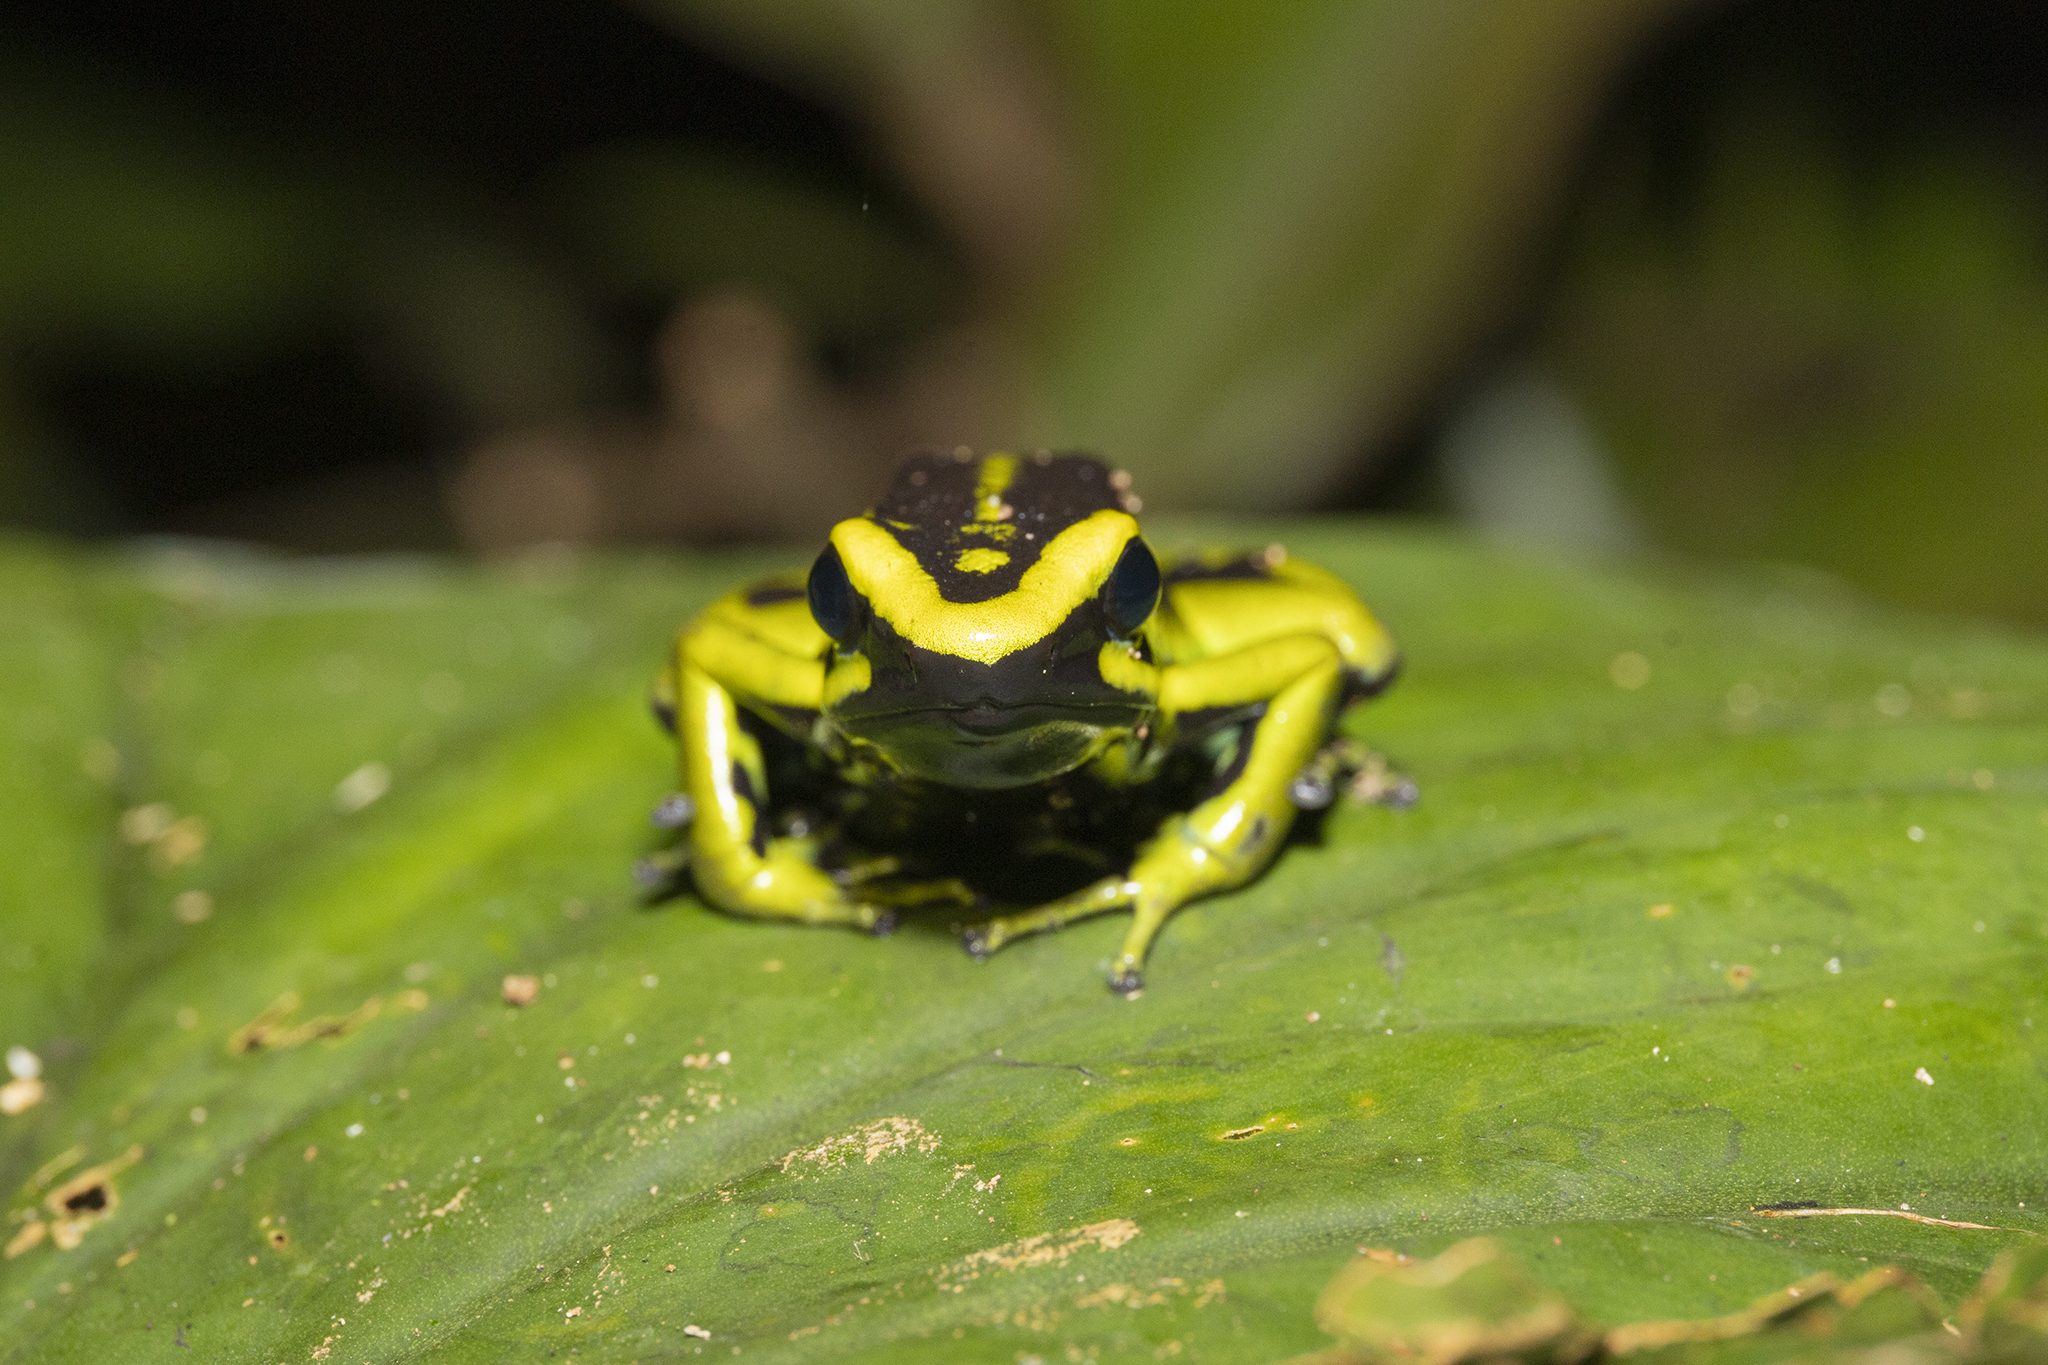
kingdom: Animalia
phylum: Chordata
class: Amphibia
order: Anura
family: Dendrobatidae
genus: Ameerega
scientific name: Ameerega trivittata
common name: Three-striped arrow-poison frog
